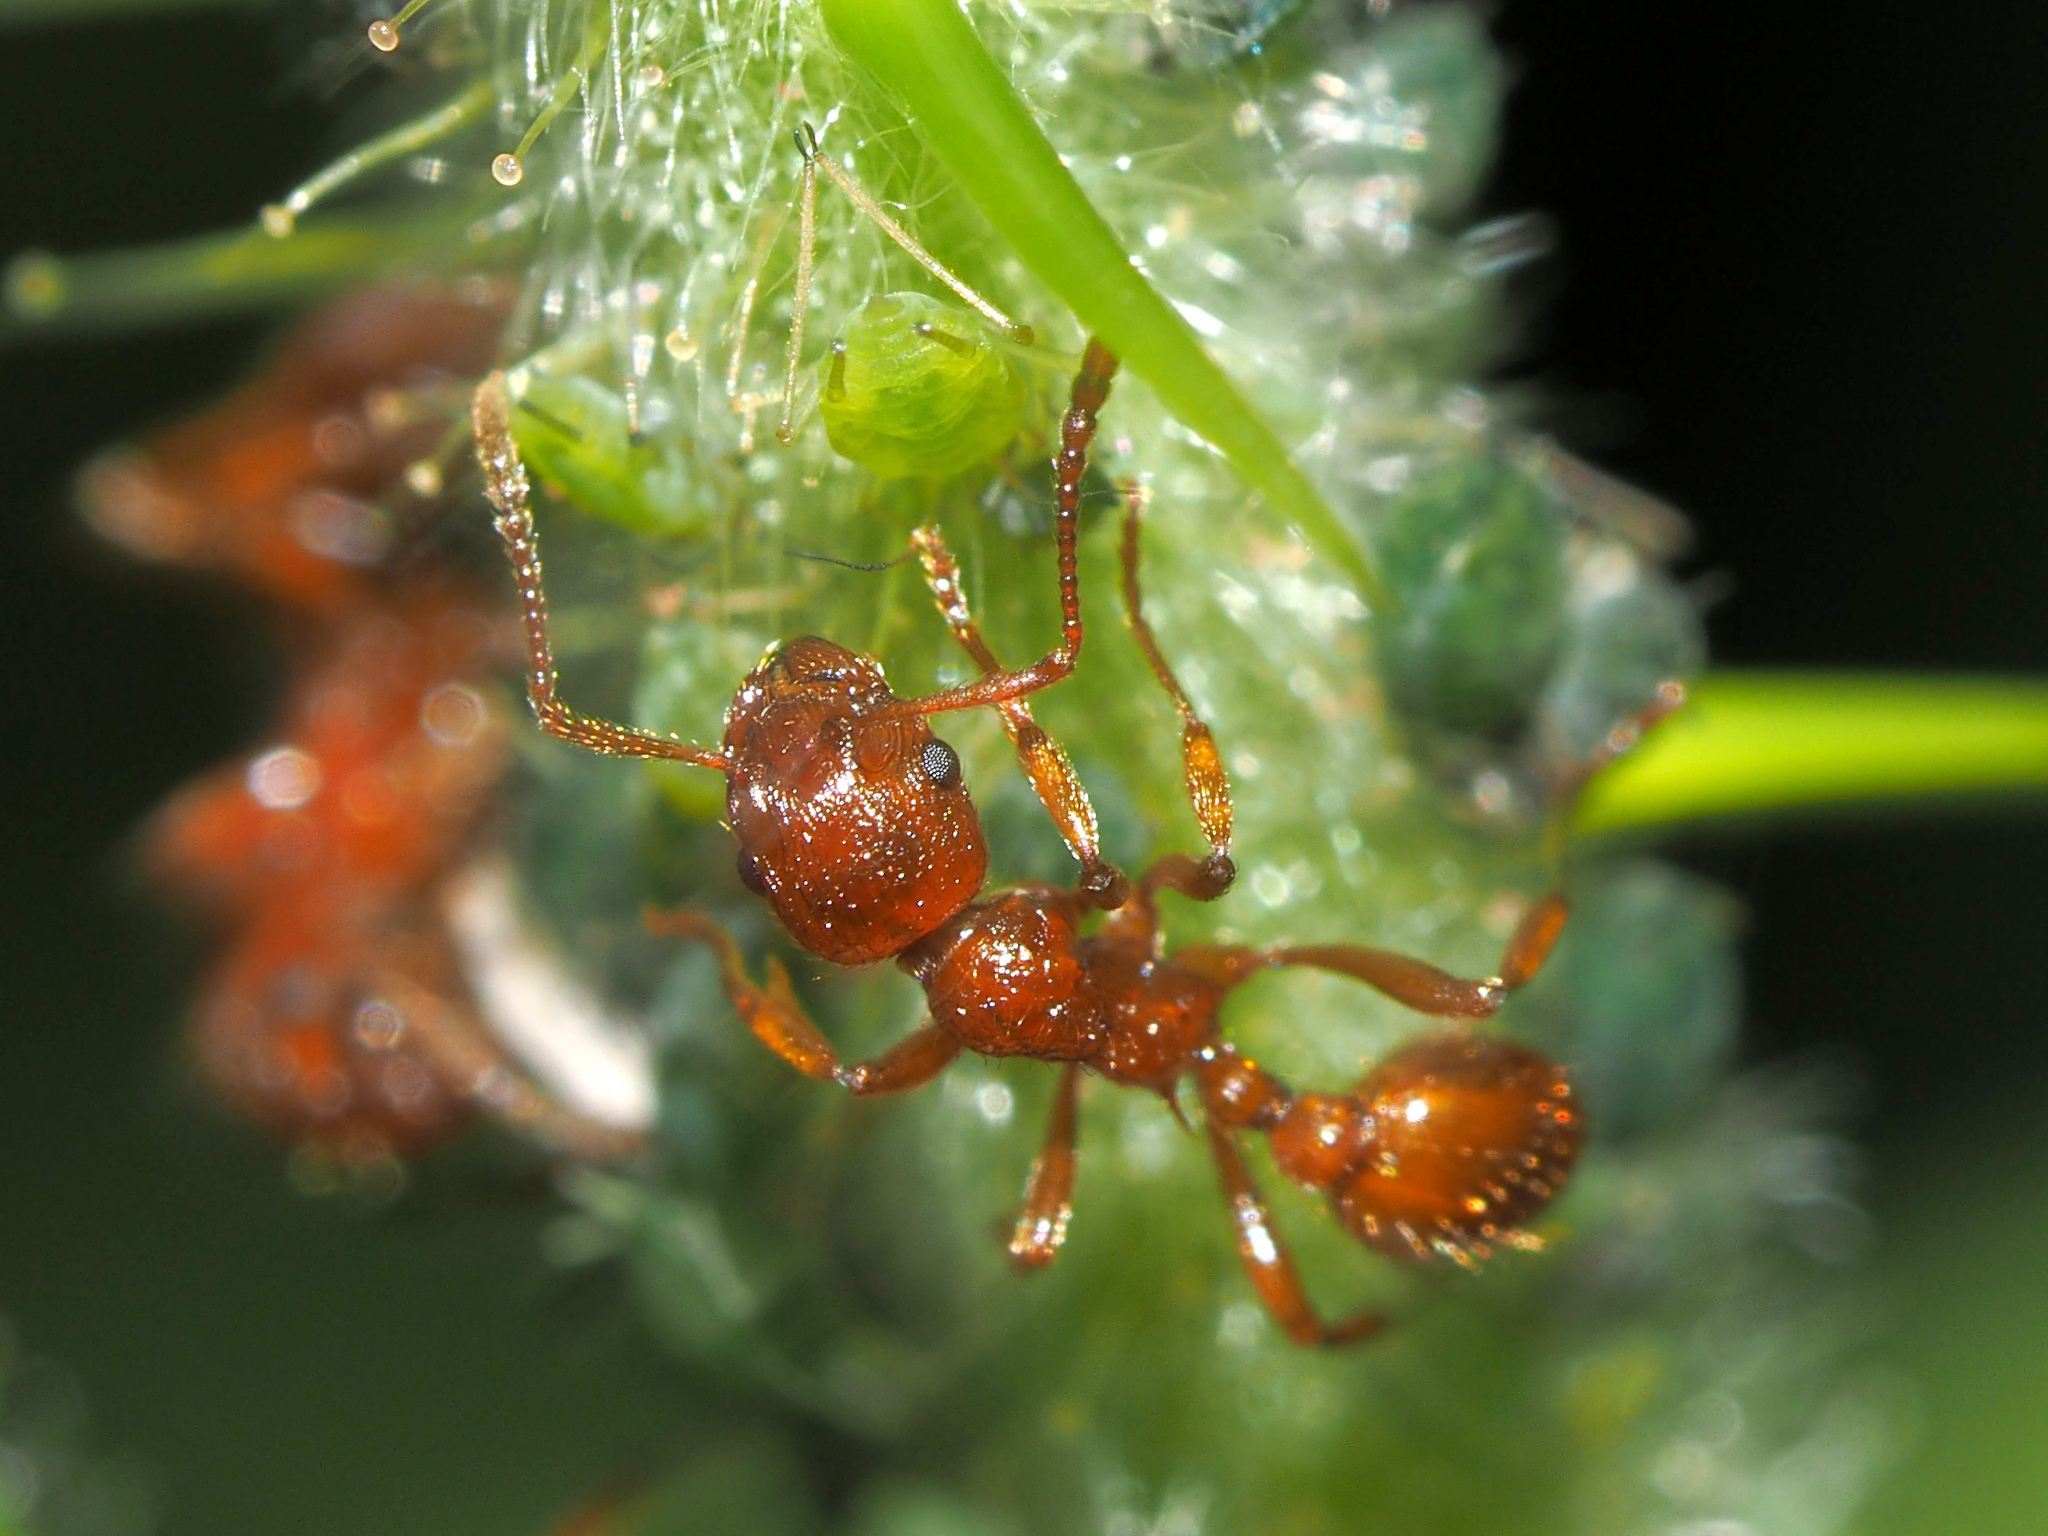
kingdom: Animalia
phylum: Arthropoda
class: Insecta
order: Hymenoptera
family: Formicidae
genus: Myrmica
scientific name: Myrmica rubra
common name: European fire ant
